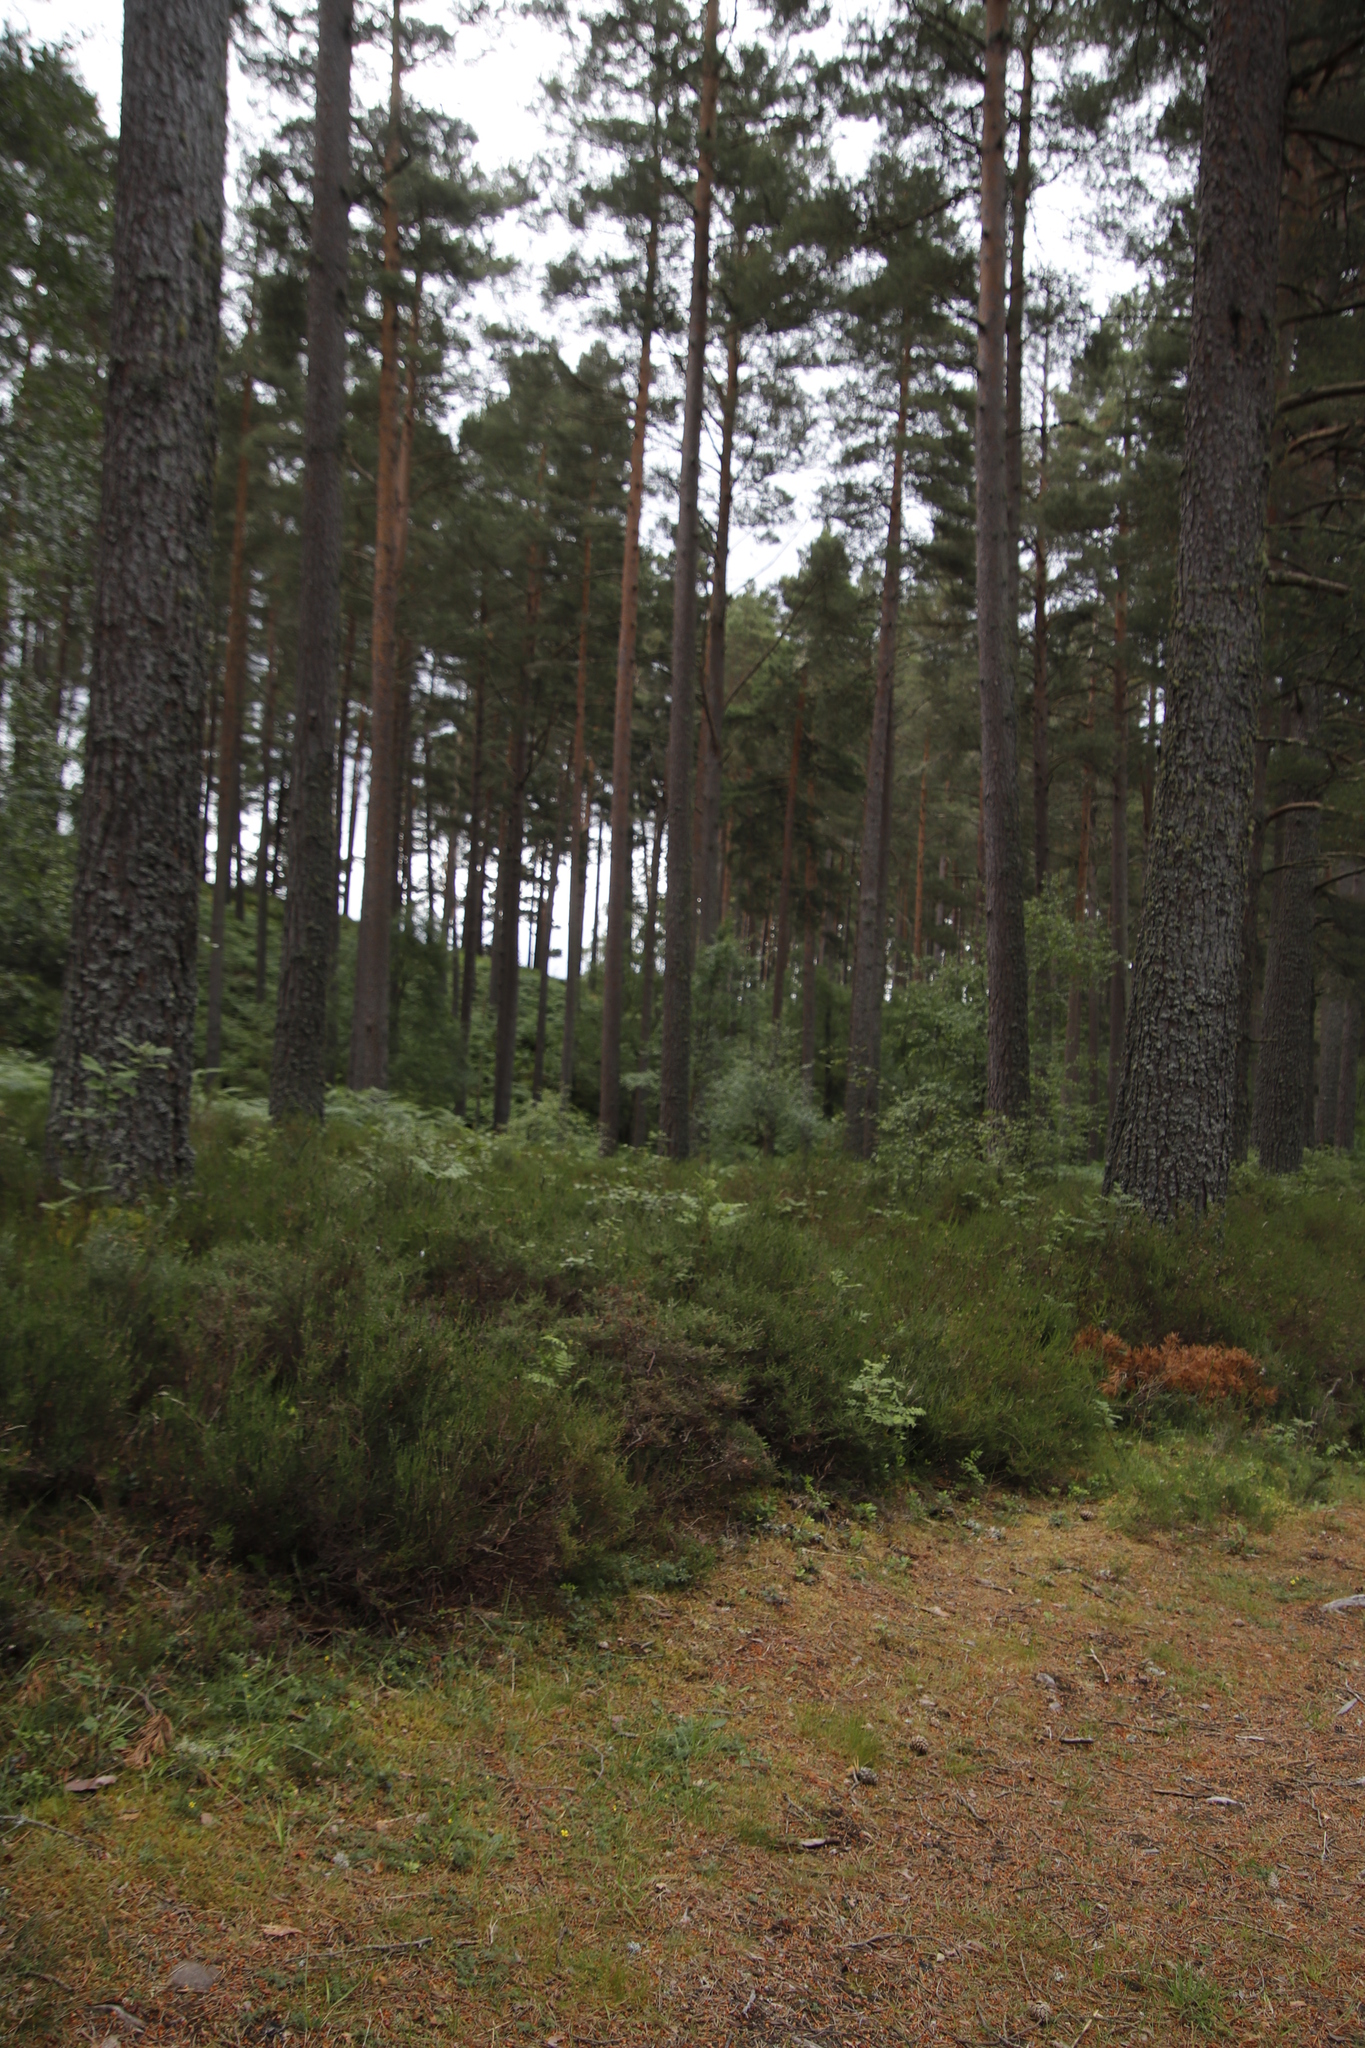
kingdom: Plantae
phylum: Tracheophyta
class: Magnoliopsida
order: Ericales
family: Ericaceae
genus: Calluna
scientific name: Calluna vulgaris
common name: Heather
